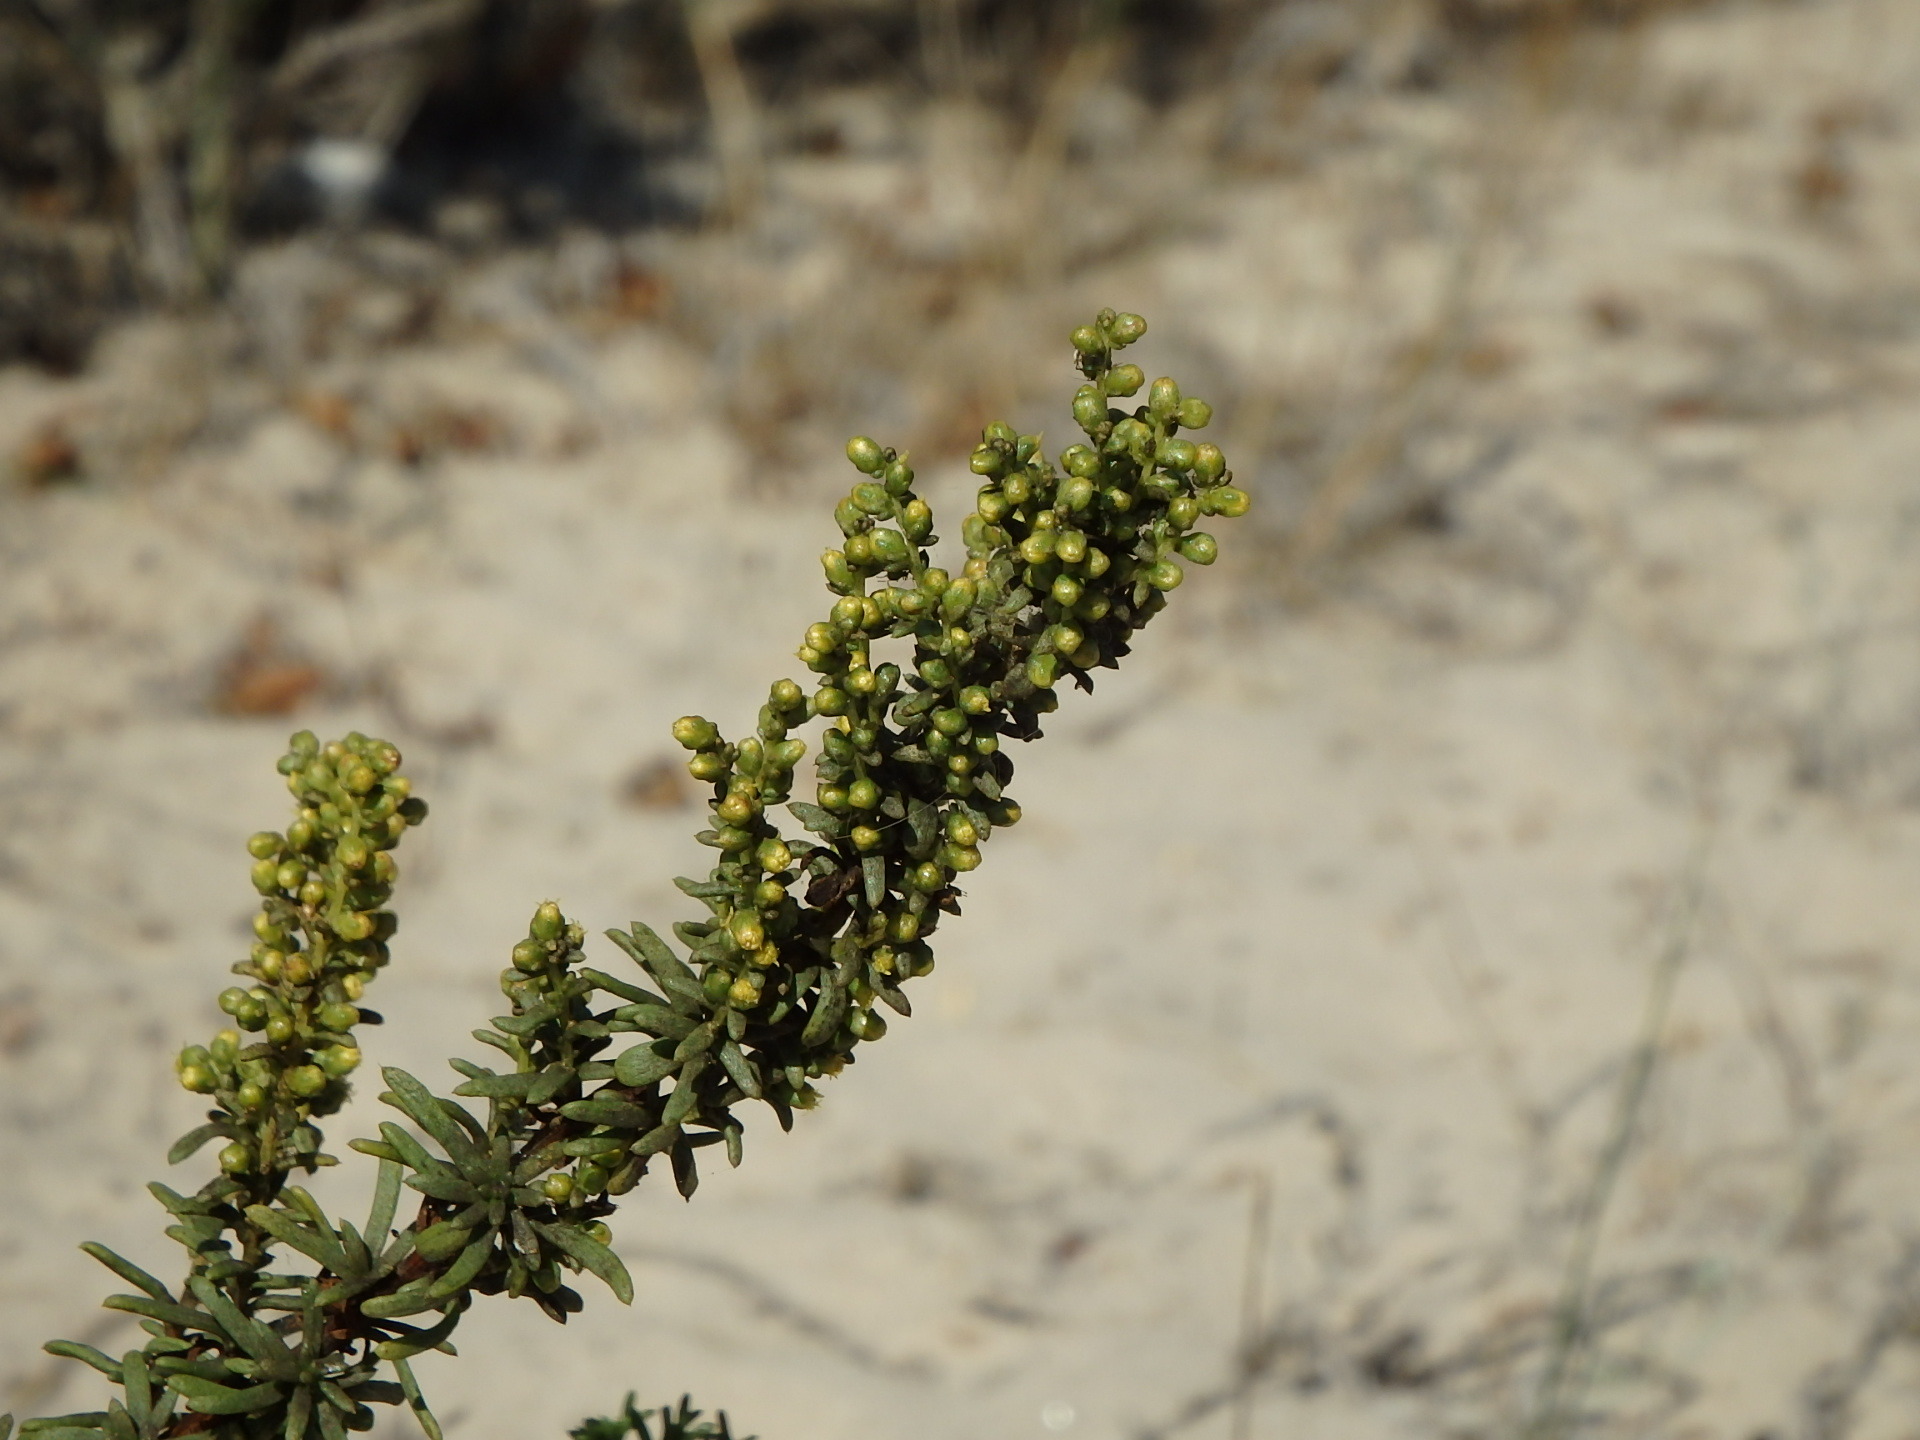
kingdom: Plantae
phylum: Tracheophyta
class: Magnoliopsida
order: Asterales
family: Asteraceae
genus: Artemisia
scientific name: Artemisia crithmifolia
